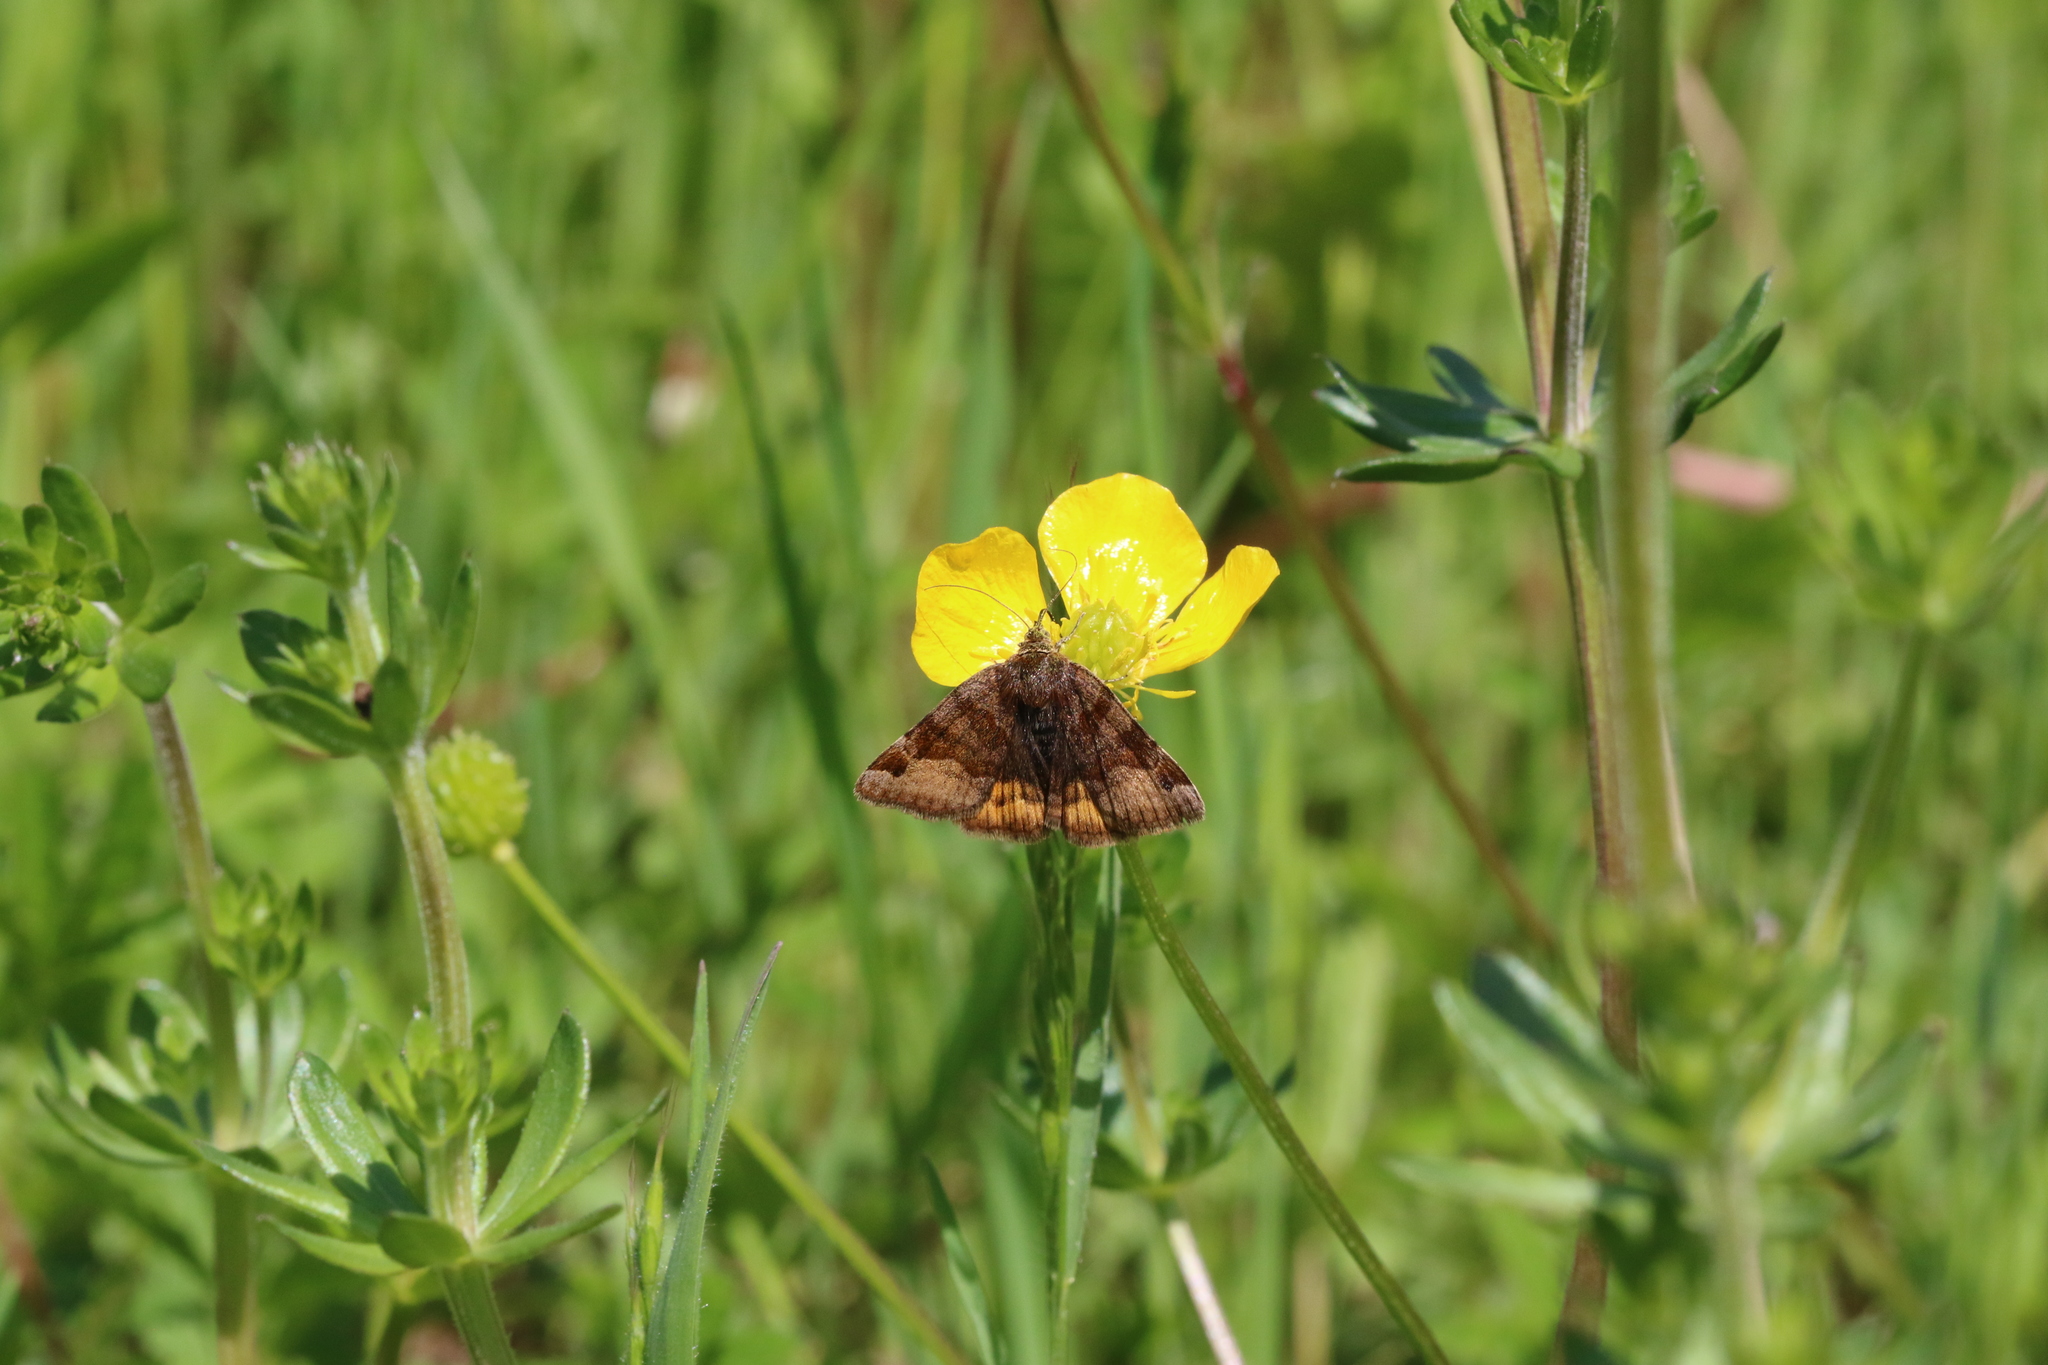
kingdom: Animalia
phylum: Arthropoda
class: Insecta
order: Lepidoptera
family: Erebidae
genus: Euclidia
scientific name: Euclidia glyphica
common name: Burnet companion
